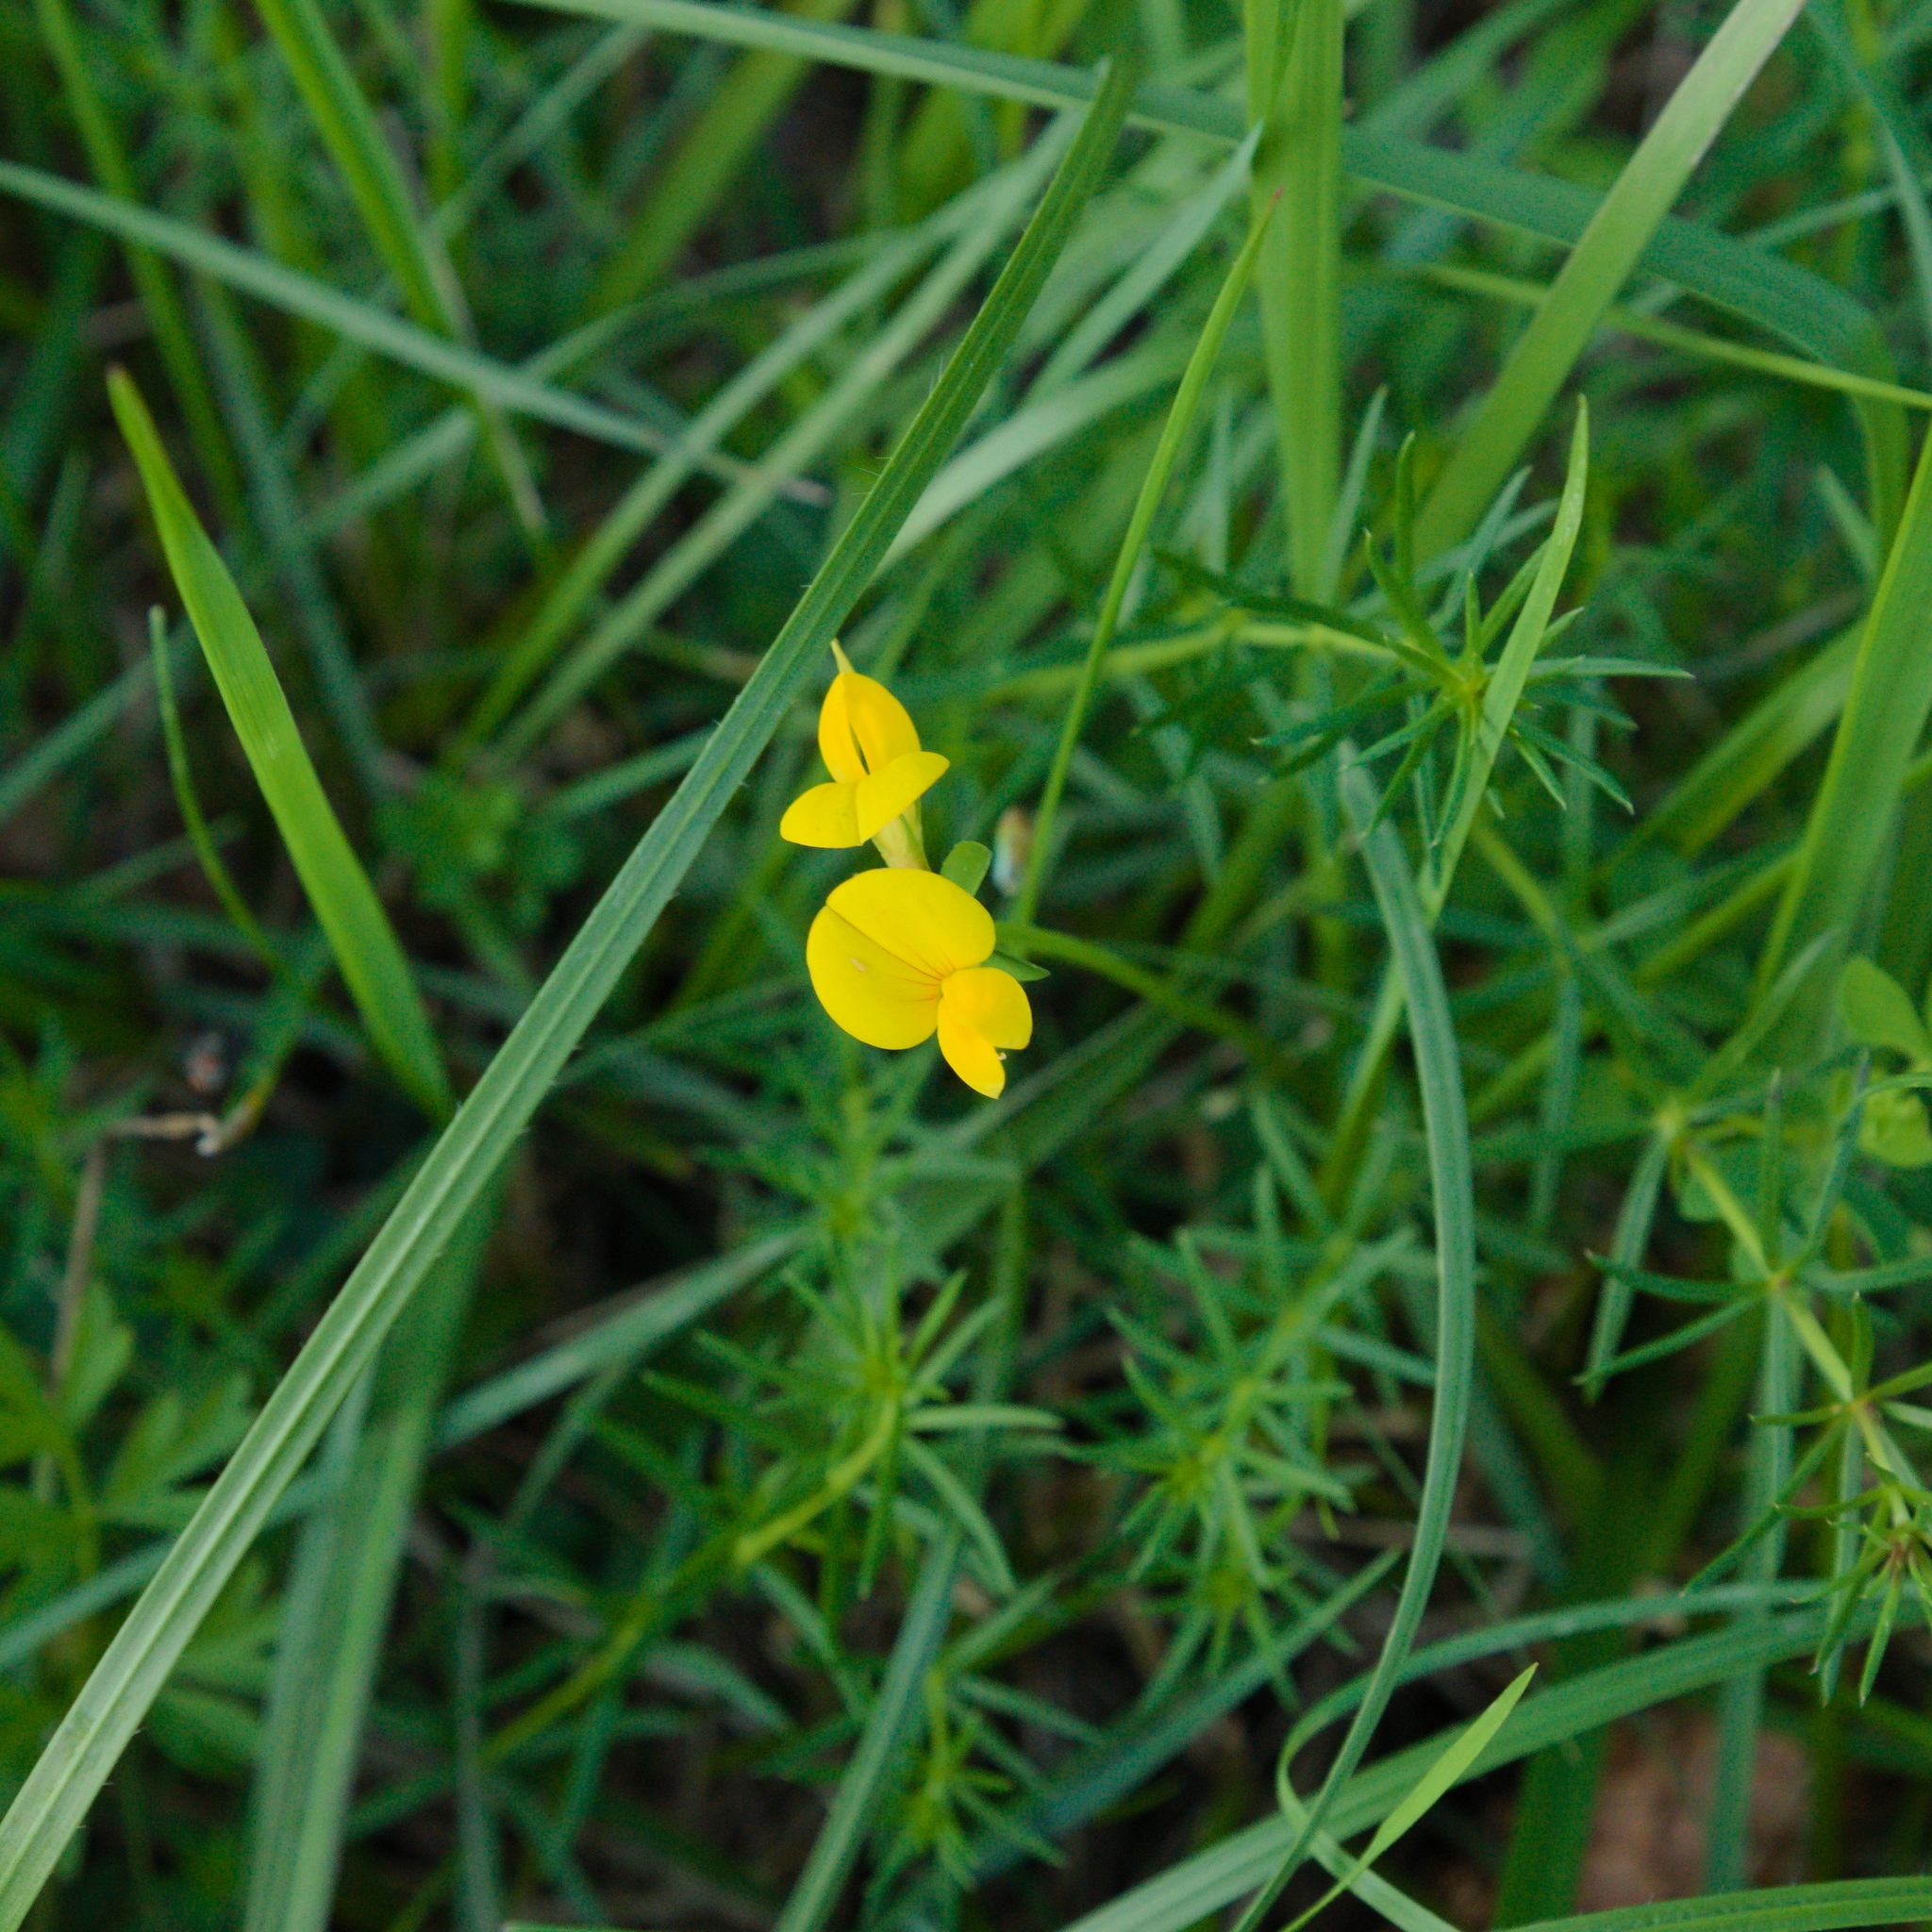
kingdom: Plantae
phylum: Tracheophyta
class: Magnoliopsida
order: Fabales
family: Fabaceae
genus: Lotus
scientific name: Lotus corniculatus
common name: Common bird's-foot-trefoil
